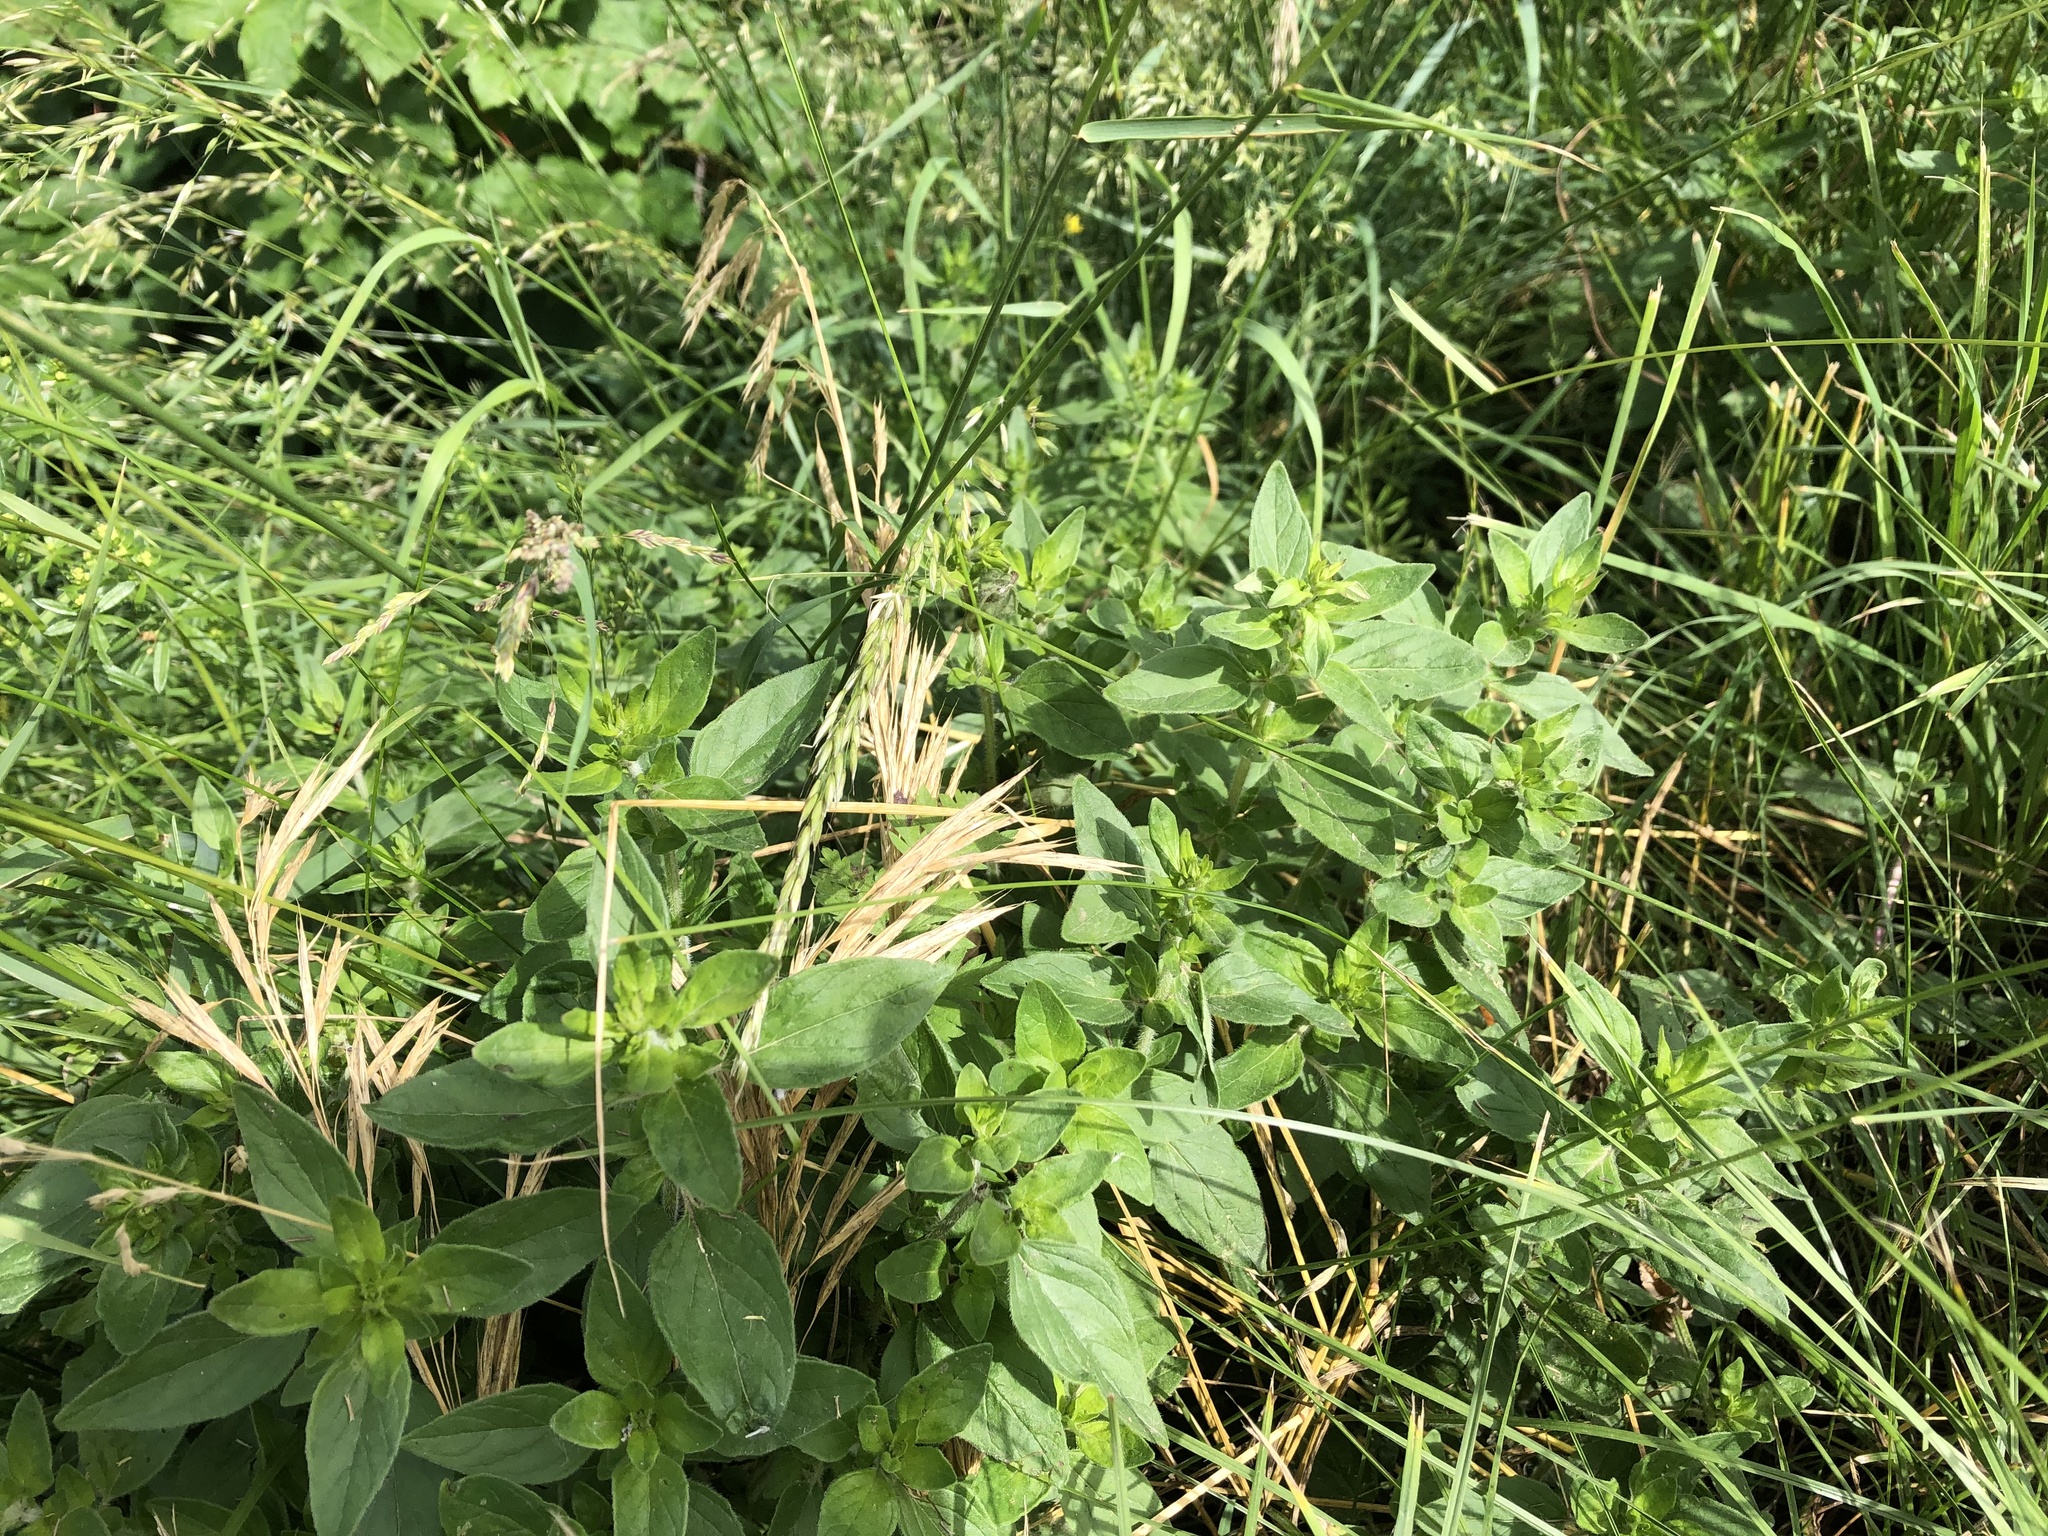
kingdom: Plantae
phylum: Tracheophyta
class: Magnoliopsida
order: Lamiales
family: Lamiaceae
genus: Origanum
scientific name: Origanum vulgare
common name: Wild marjoram
